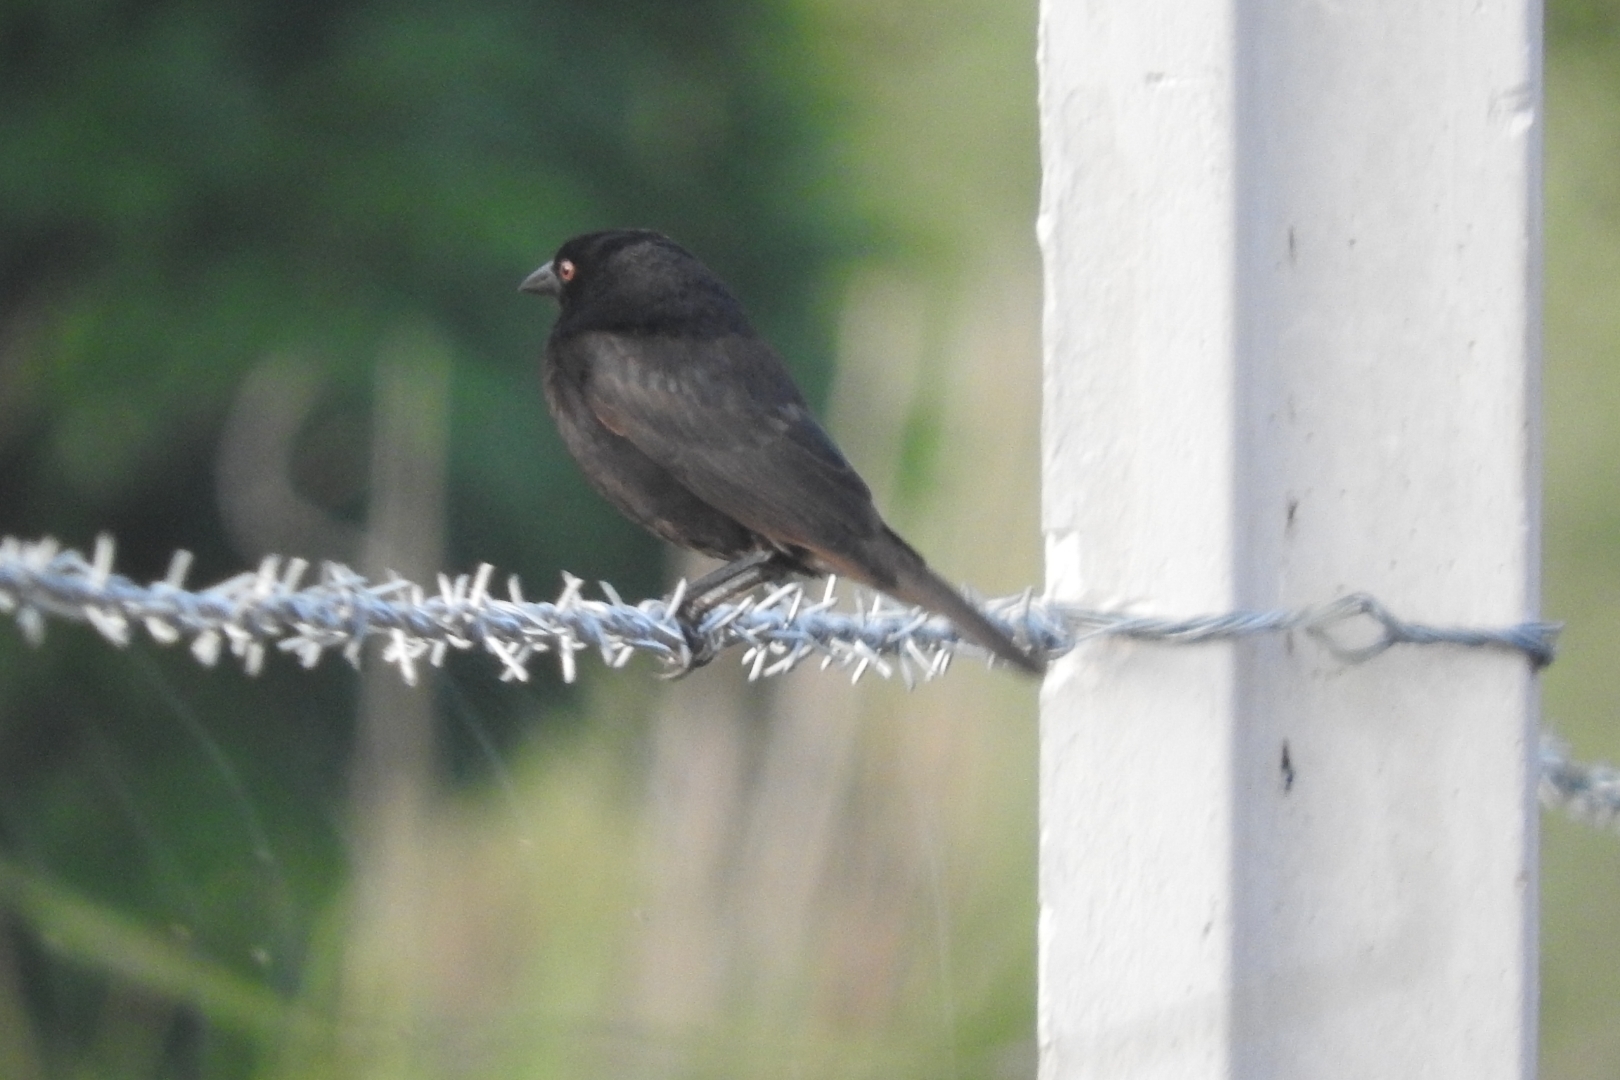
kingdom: Animalia
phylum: Chordata
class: Aves
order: Passeriformes
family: Icteridae
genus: Molothrus
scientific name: Molothrus aeneus
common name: Bronzed cowbird
